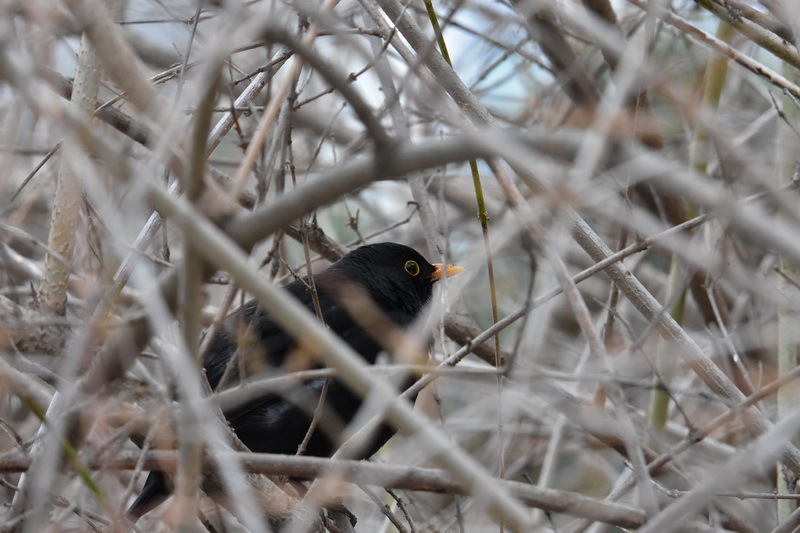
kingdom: Animalia
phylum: Chordata
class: Aves
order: Passeriformes
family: Turdidae
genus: Turdus
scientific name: Turdus merula
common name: Common blackbird
